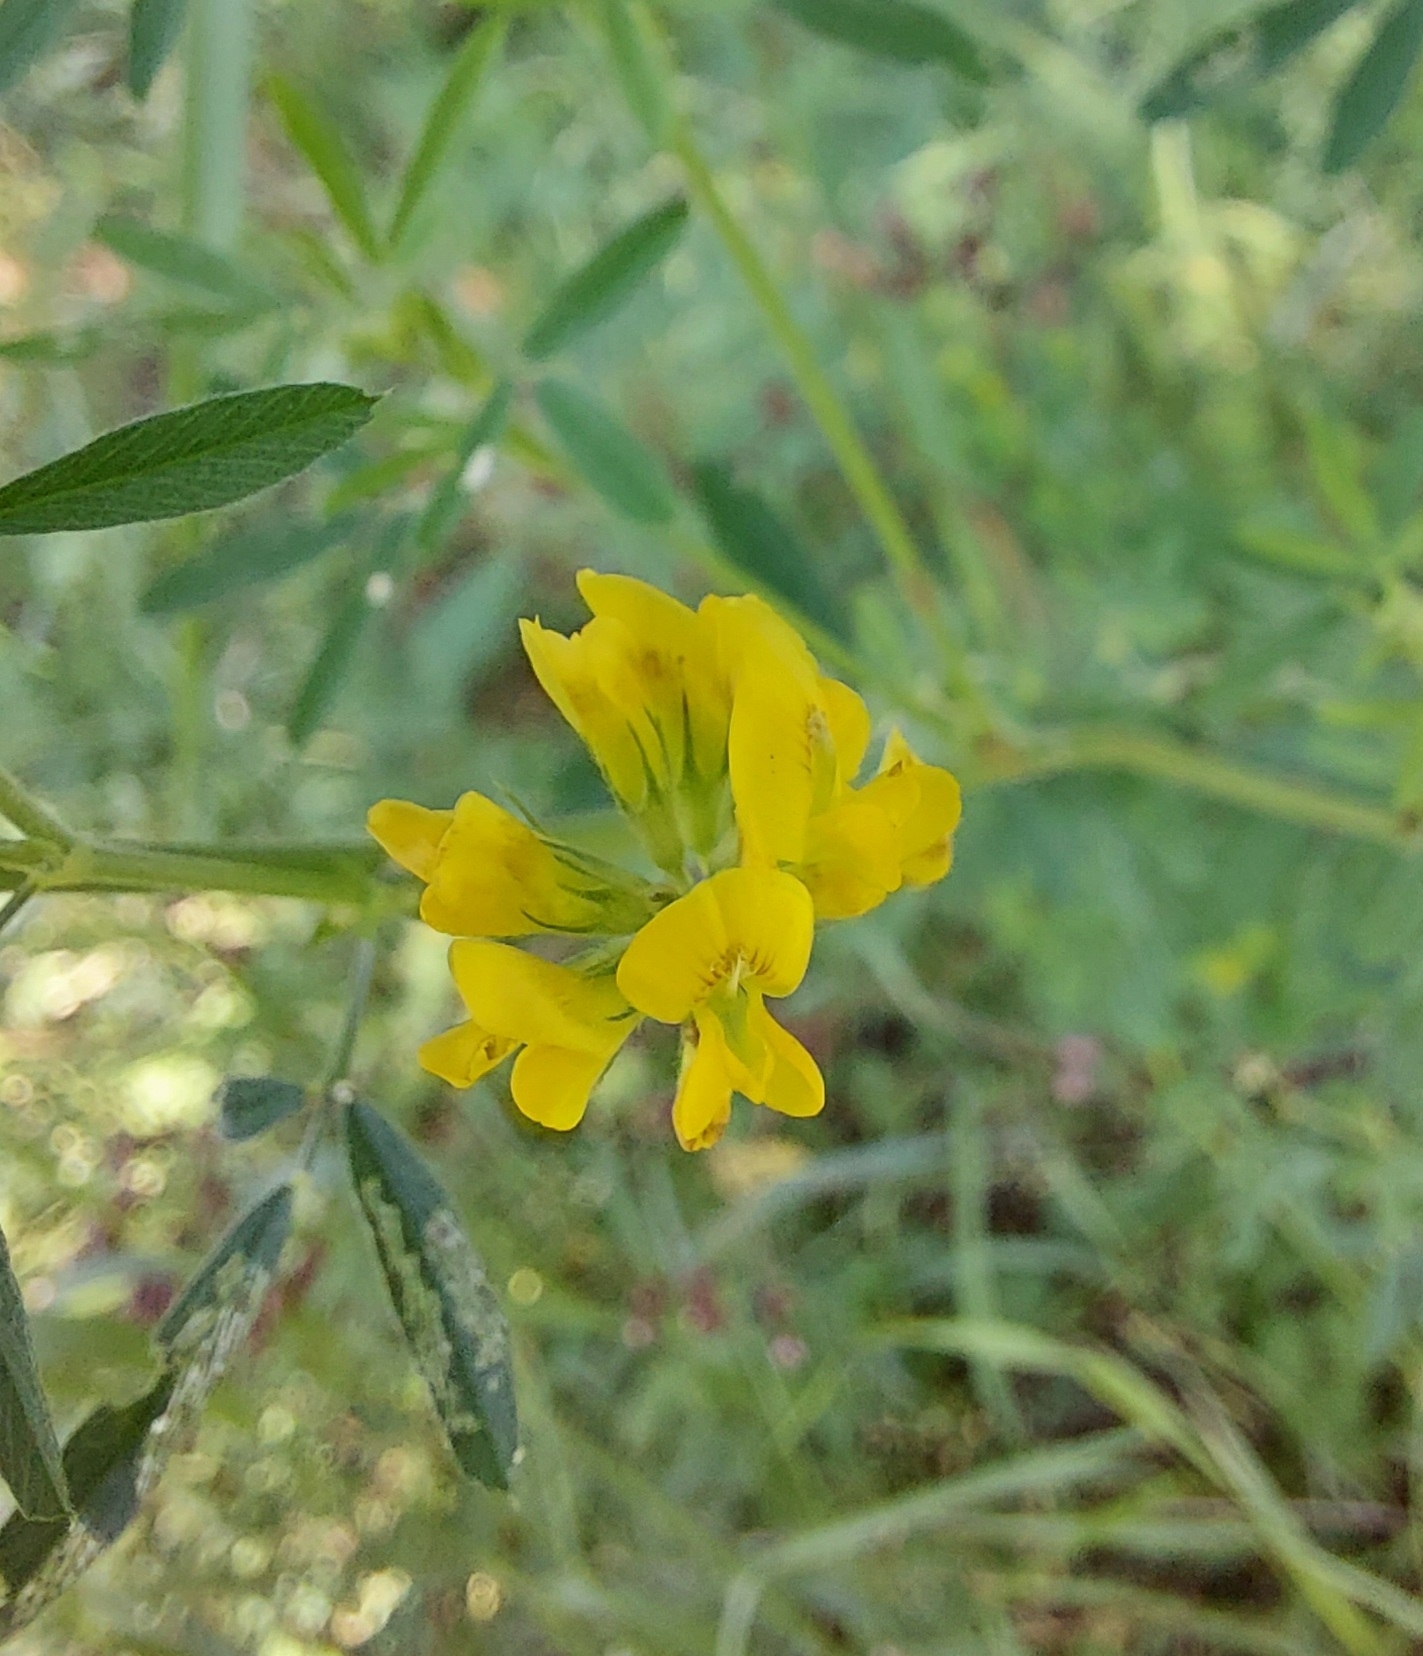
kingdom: Plantae
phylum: Tracheophyta
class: Magnoliopsida
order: Fabales
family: Fabaceae
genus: Medicago
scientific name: Medicago falcata
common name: Sickle medick
